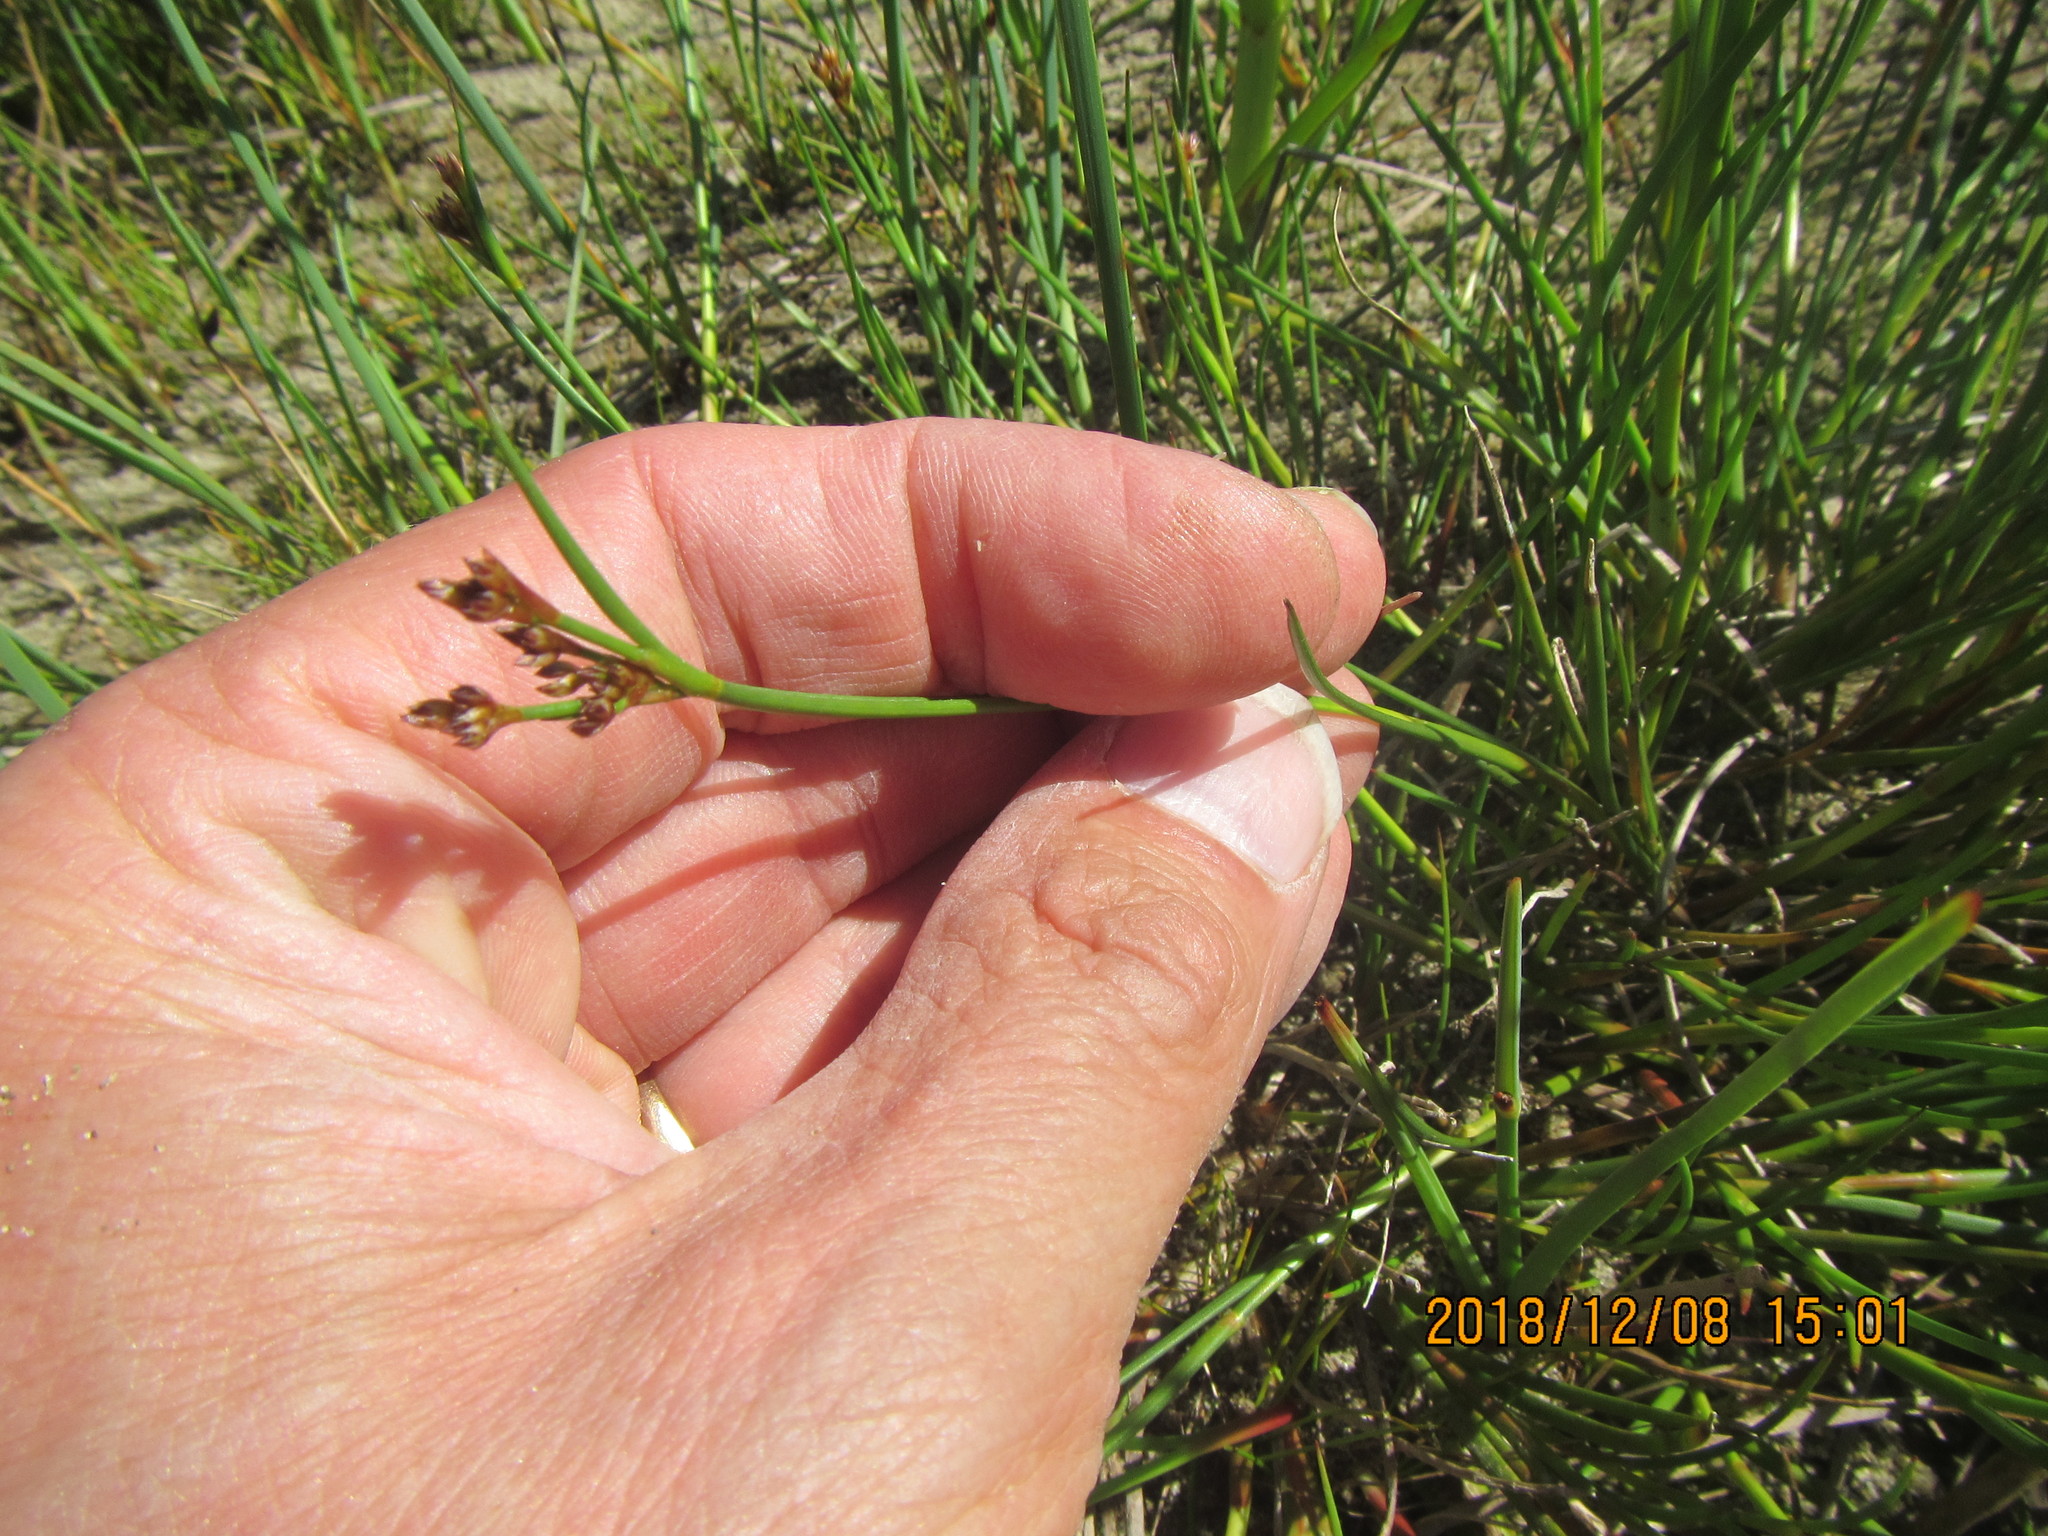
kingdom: Plantae
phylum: Tracheophyta
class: Liliopsida
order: Poales
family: Juncaceae
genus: Juncus
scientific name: Juncus articulatus
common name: Jointed rush
